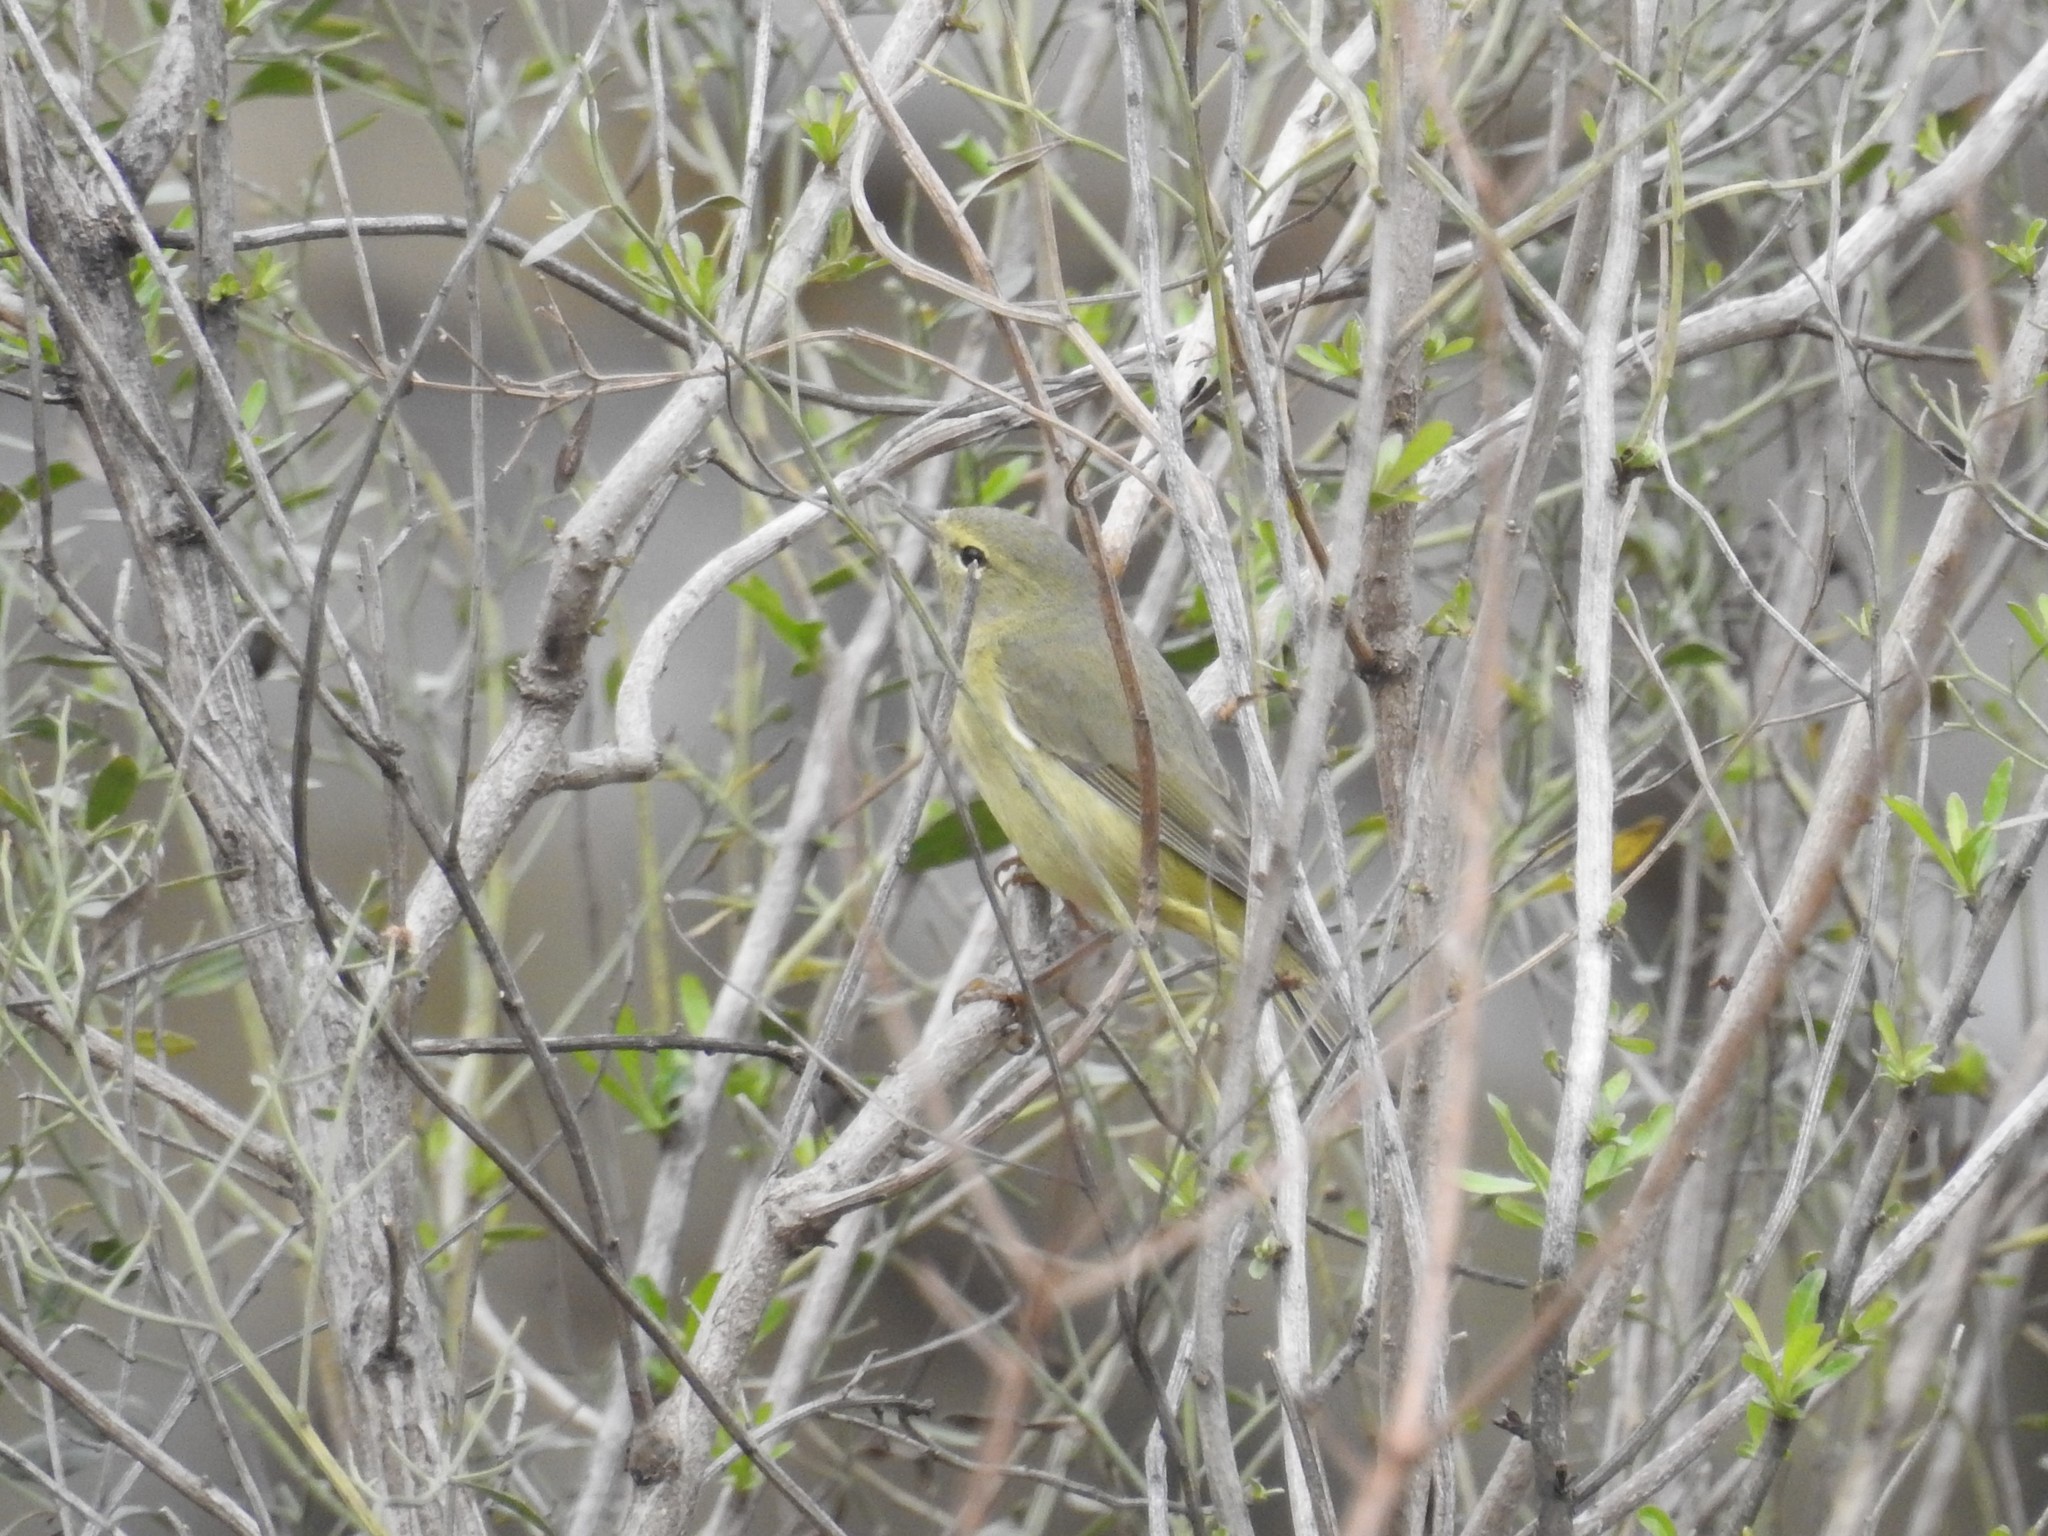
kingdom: Animalia
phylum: Chordata
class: Aves
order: Passeriformes
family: Parulidae
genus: Leiothlypis
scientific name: Leiothlypis celata
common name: Orange-crowned warbler
